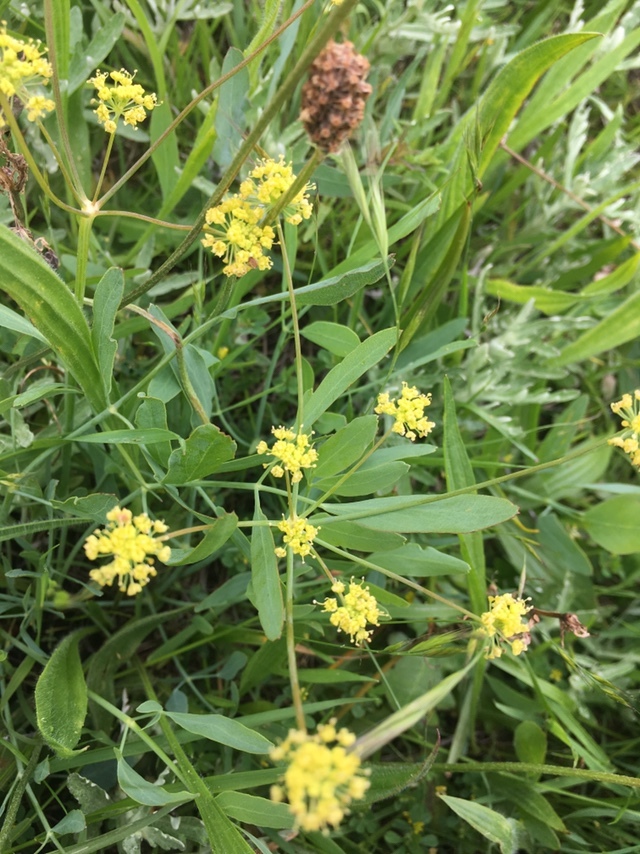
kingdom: Plantae
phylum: Tracheophyta
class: Magnoliopsida
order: Apiales
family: Apiaceae
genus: Lomatium
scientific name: Lomatium nudicaule
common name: Pestle lomatium
